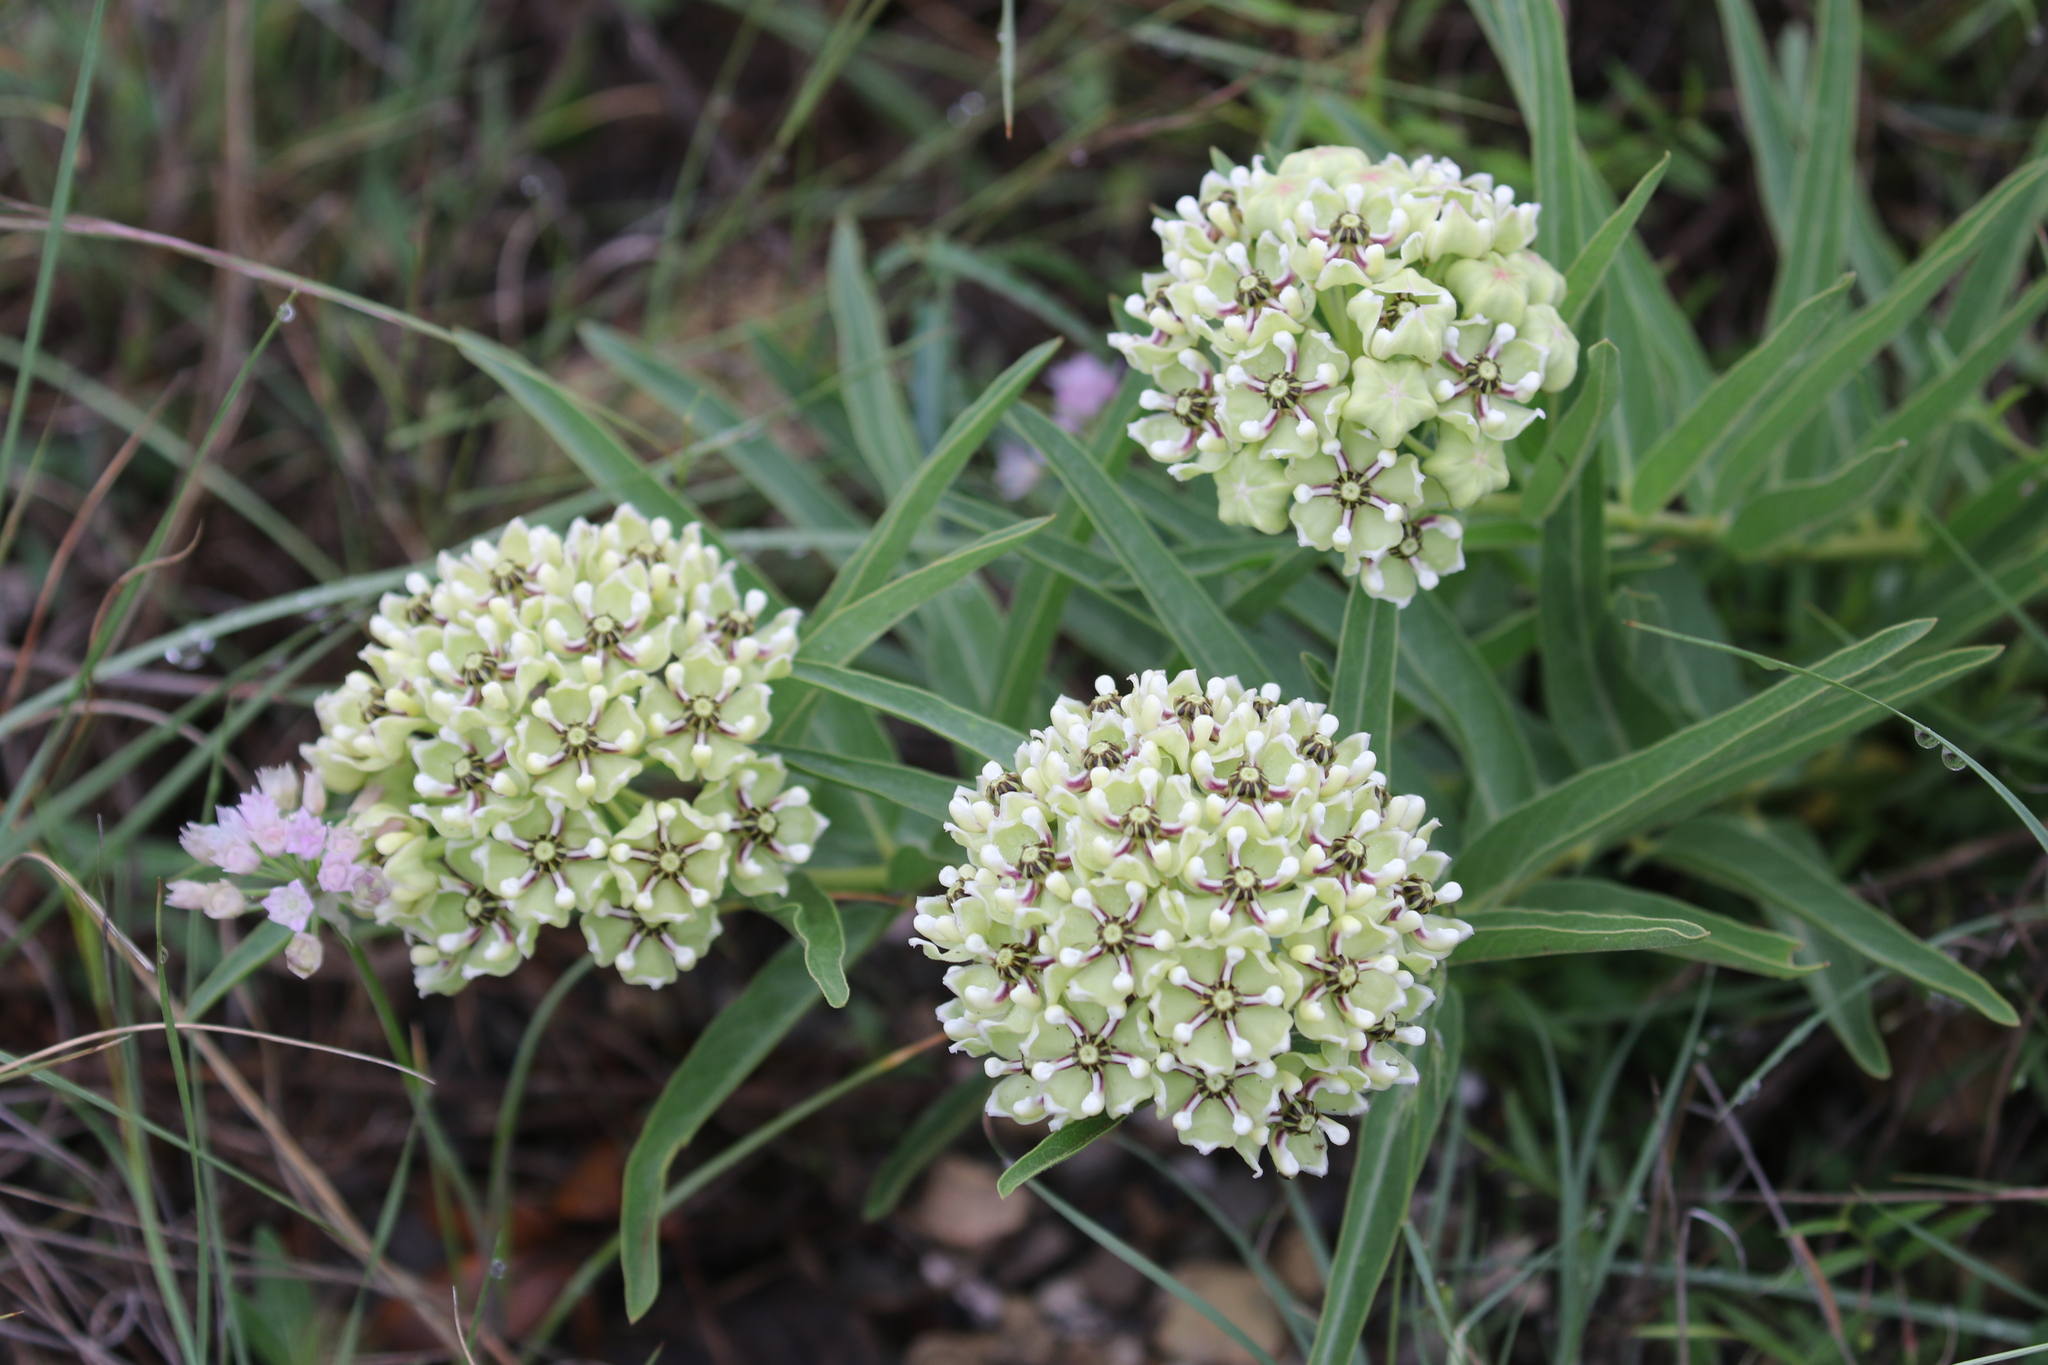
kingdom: Plantae
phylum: Tracheophyta
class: Magnoliopsida
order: Gentianales
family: Apocynaceae
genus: Asclepias
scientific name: Asclepias asperula
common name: Antelope horns
